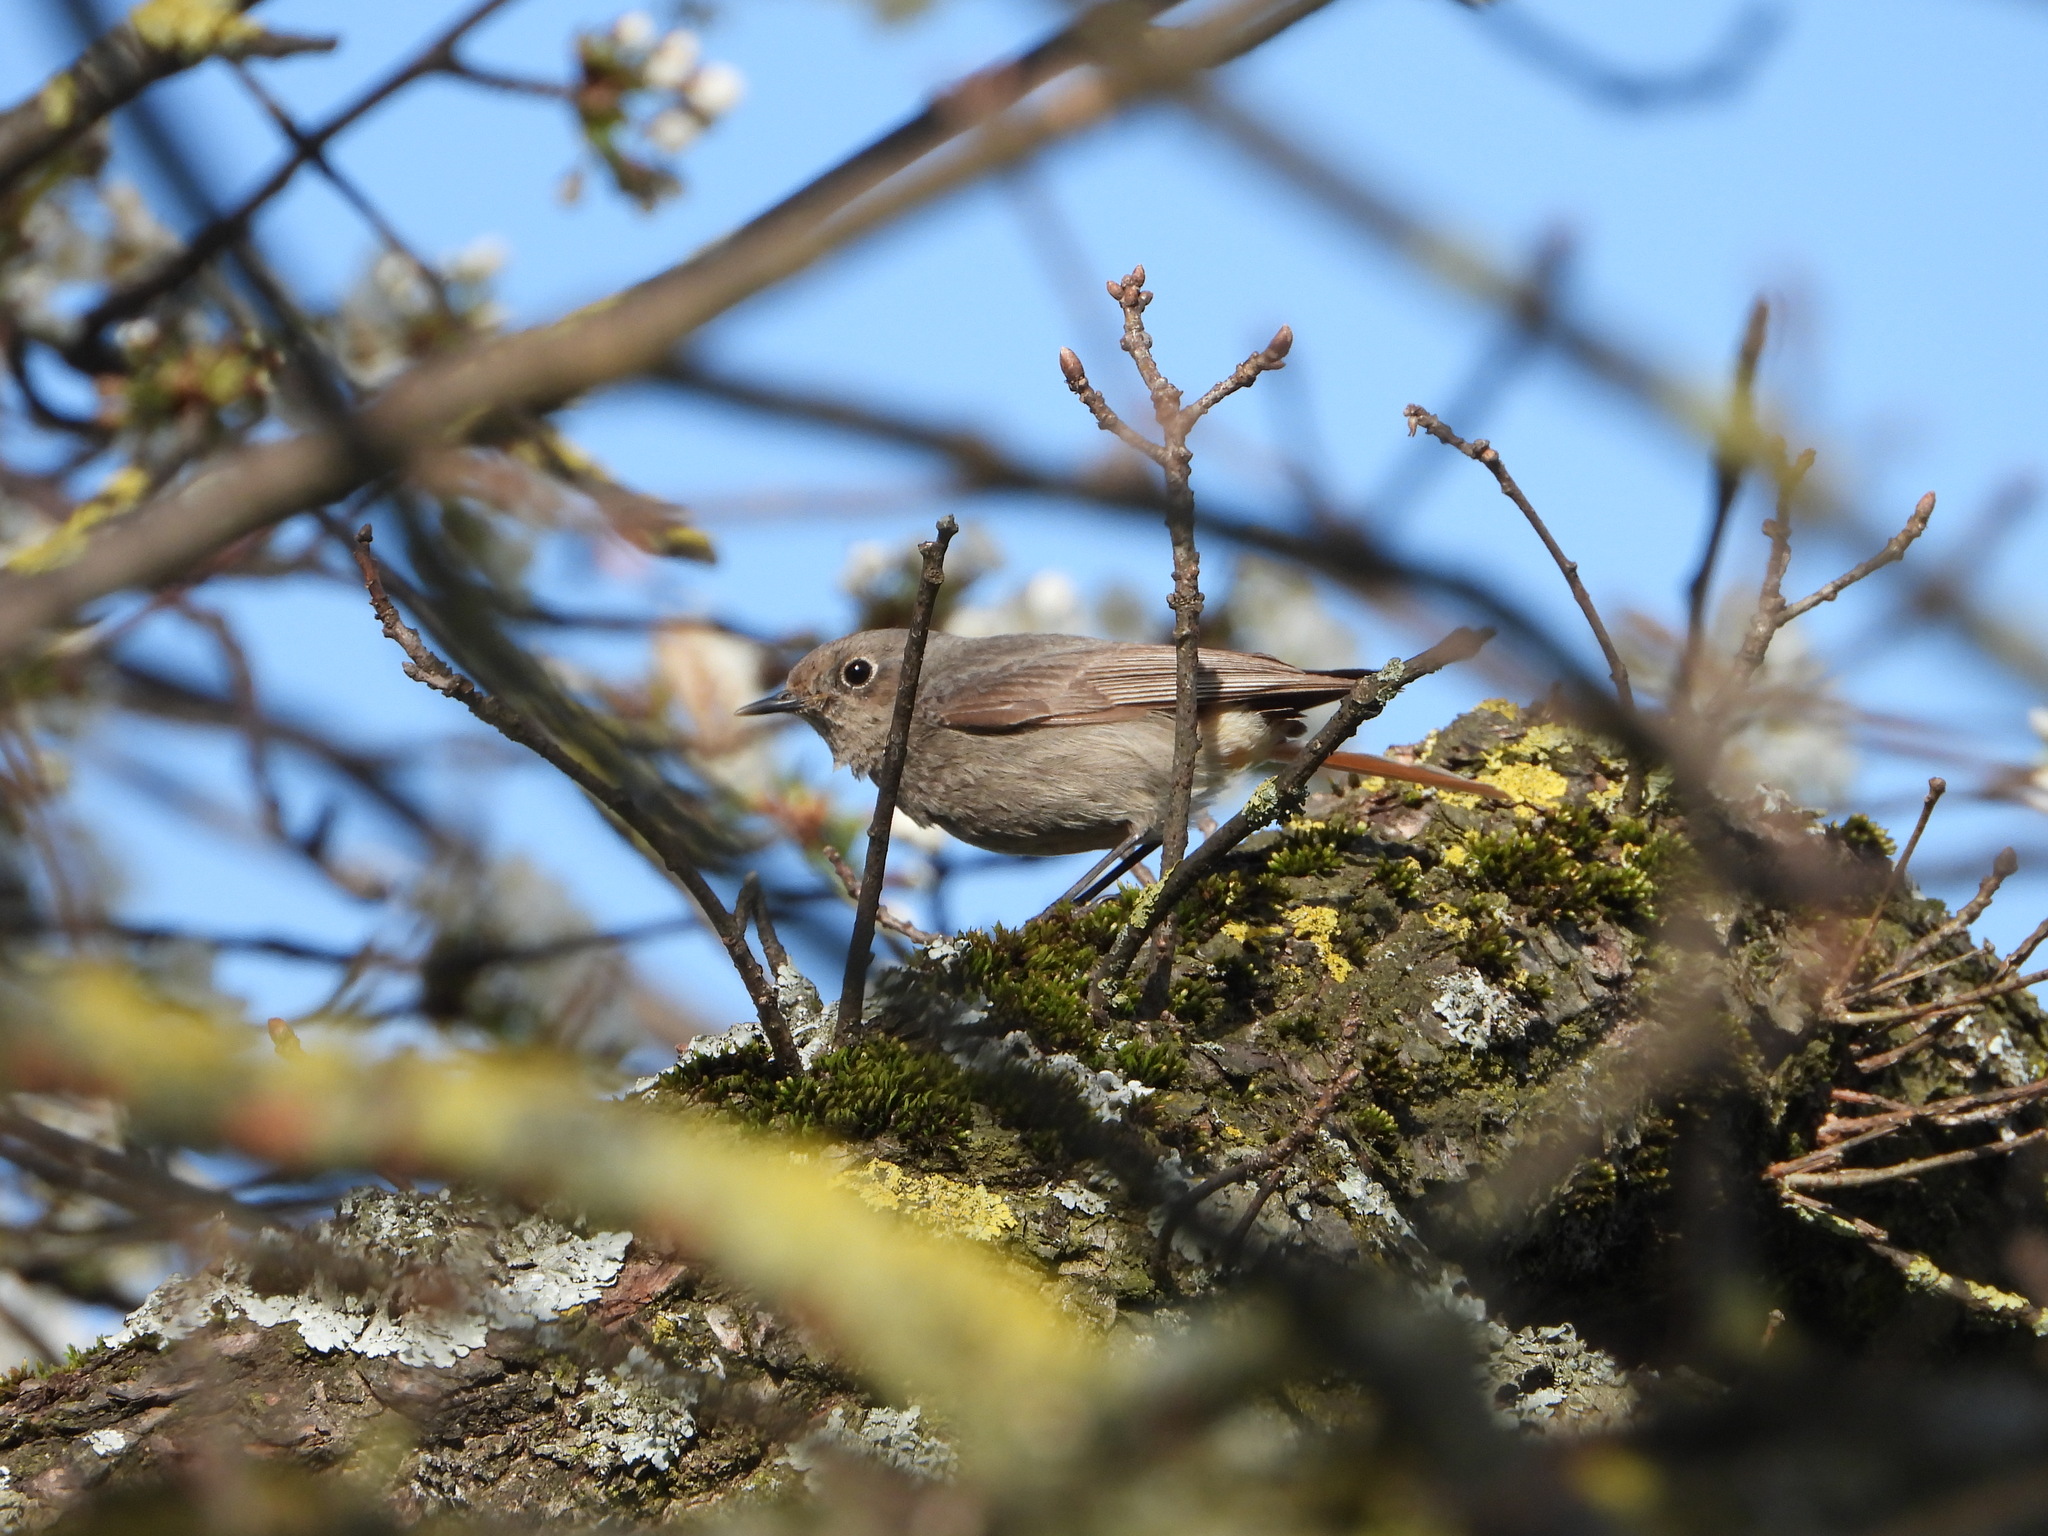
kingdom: Animalia
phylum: Chordata
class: Aves
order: Passeriformes
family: Muscicapidae
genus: Phoenicurus
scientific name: Phoenicurus ochruros
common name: Black redstart
